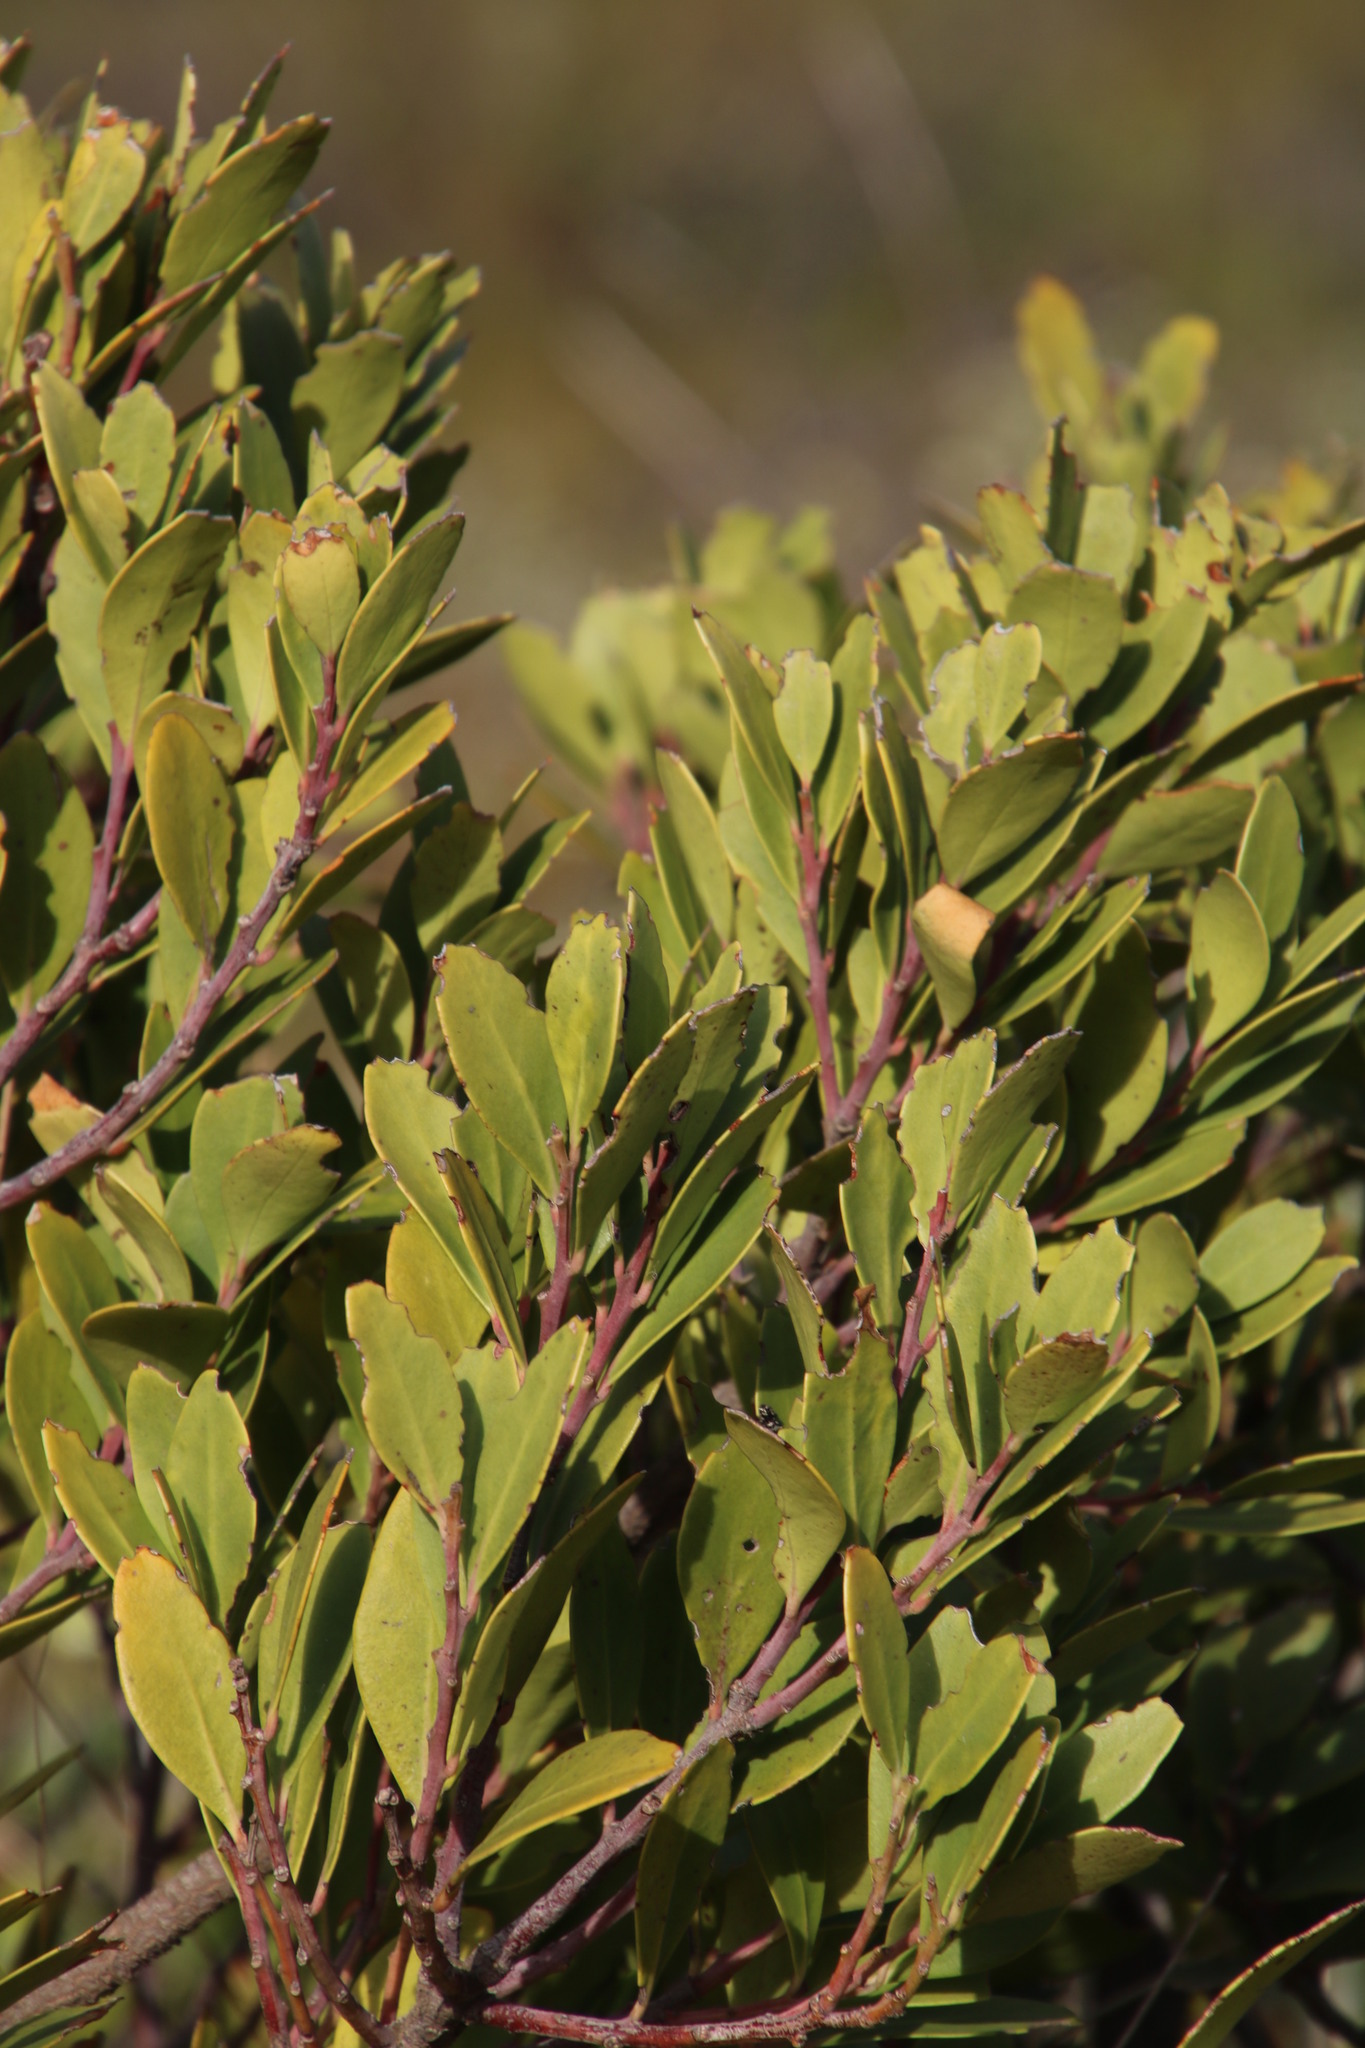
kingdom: Plantae
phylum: Tracheophyta
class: Magnoliopsida
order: Celastrales
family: Celastraceae
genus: Pterocelastrus
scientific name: Pterocelastrus tricuspidatus
